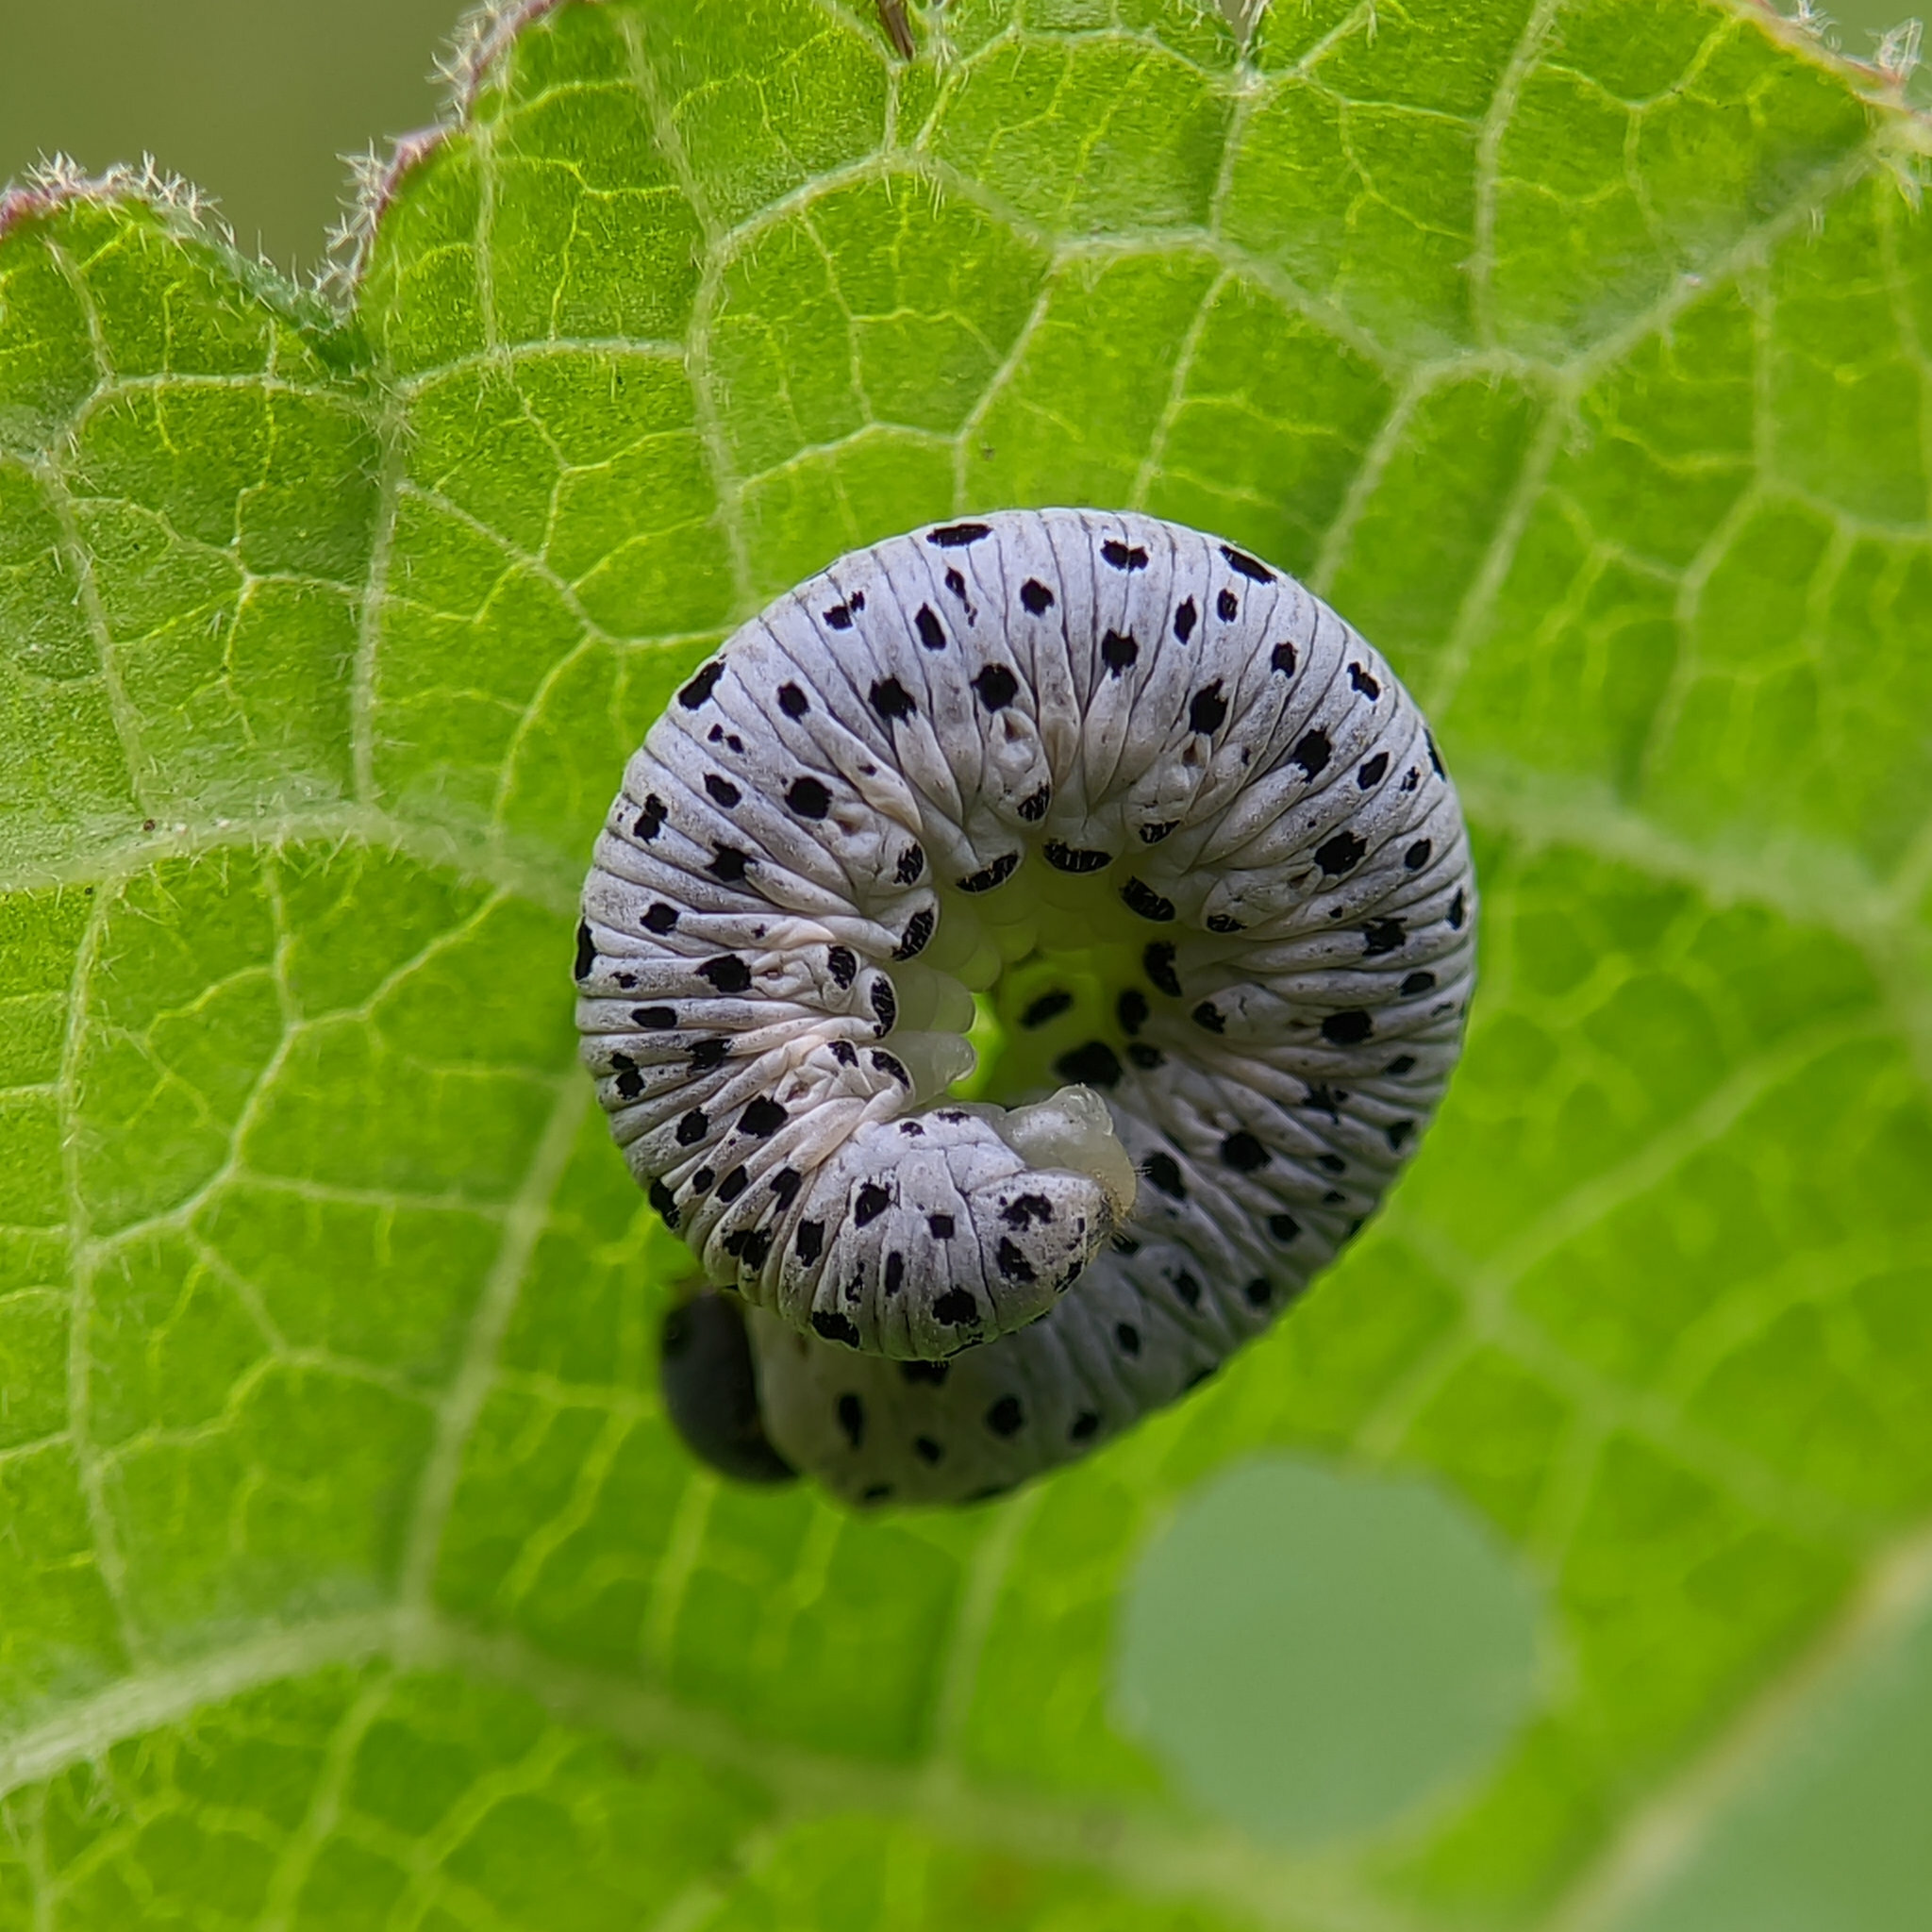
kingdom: Animalia
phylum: Arthropoda
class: Insecta
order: Hymenoptera
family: Tenthredinidae
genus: Tenthredo
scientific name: Tenthredo scrophulariae
